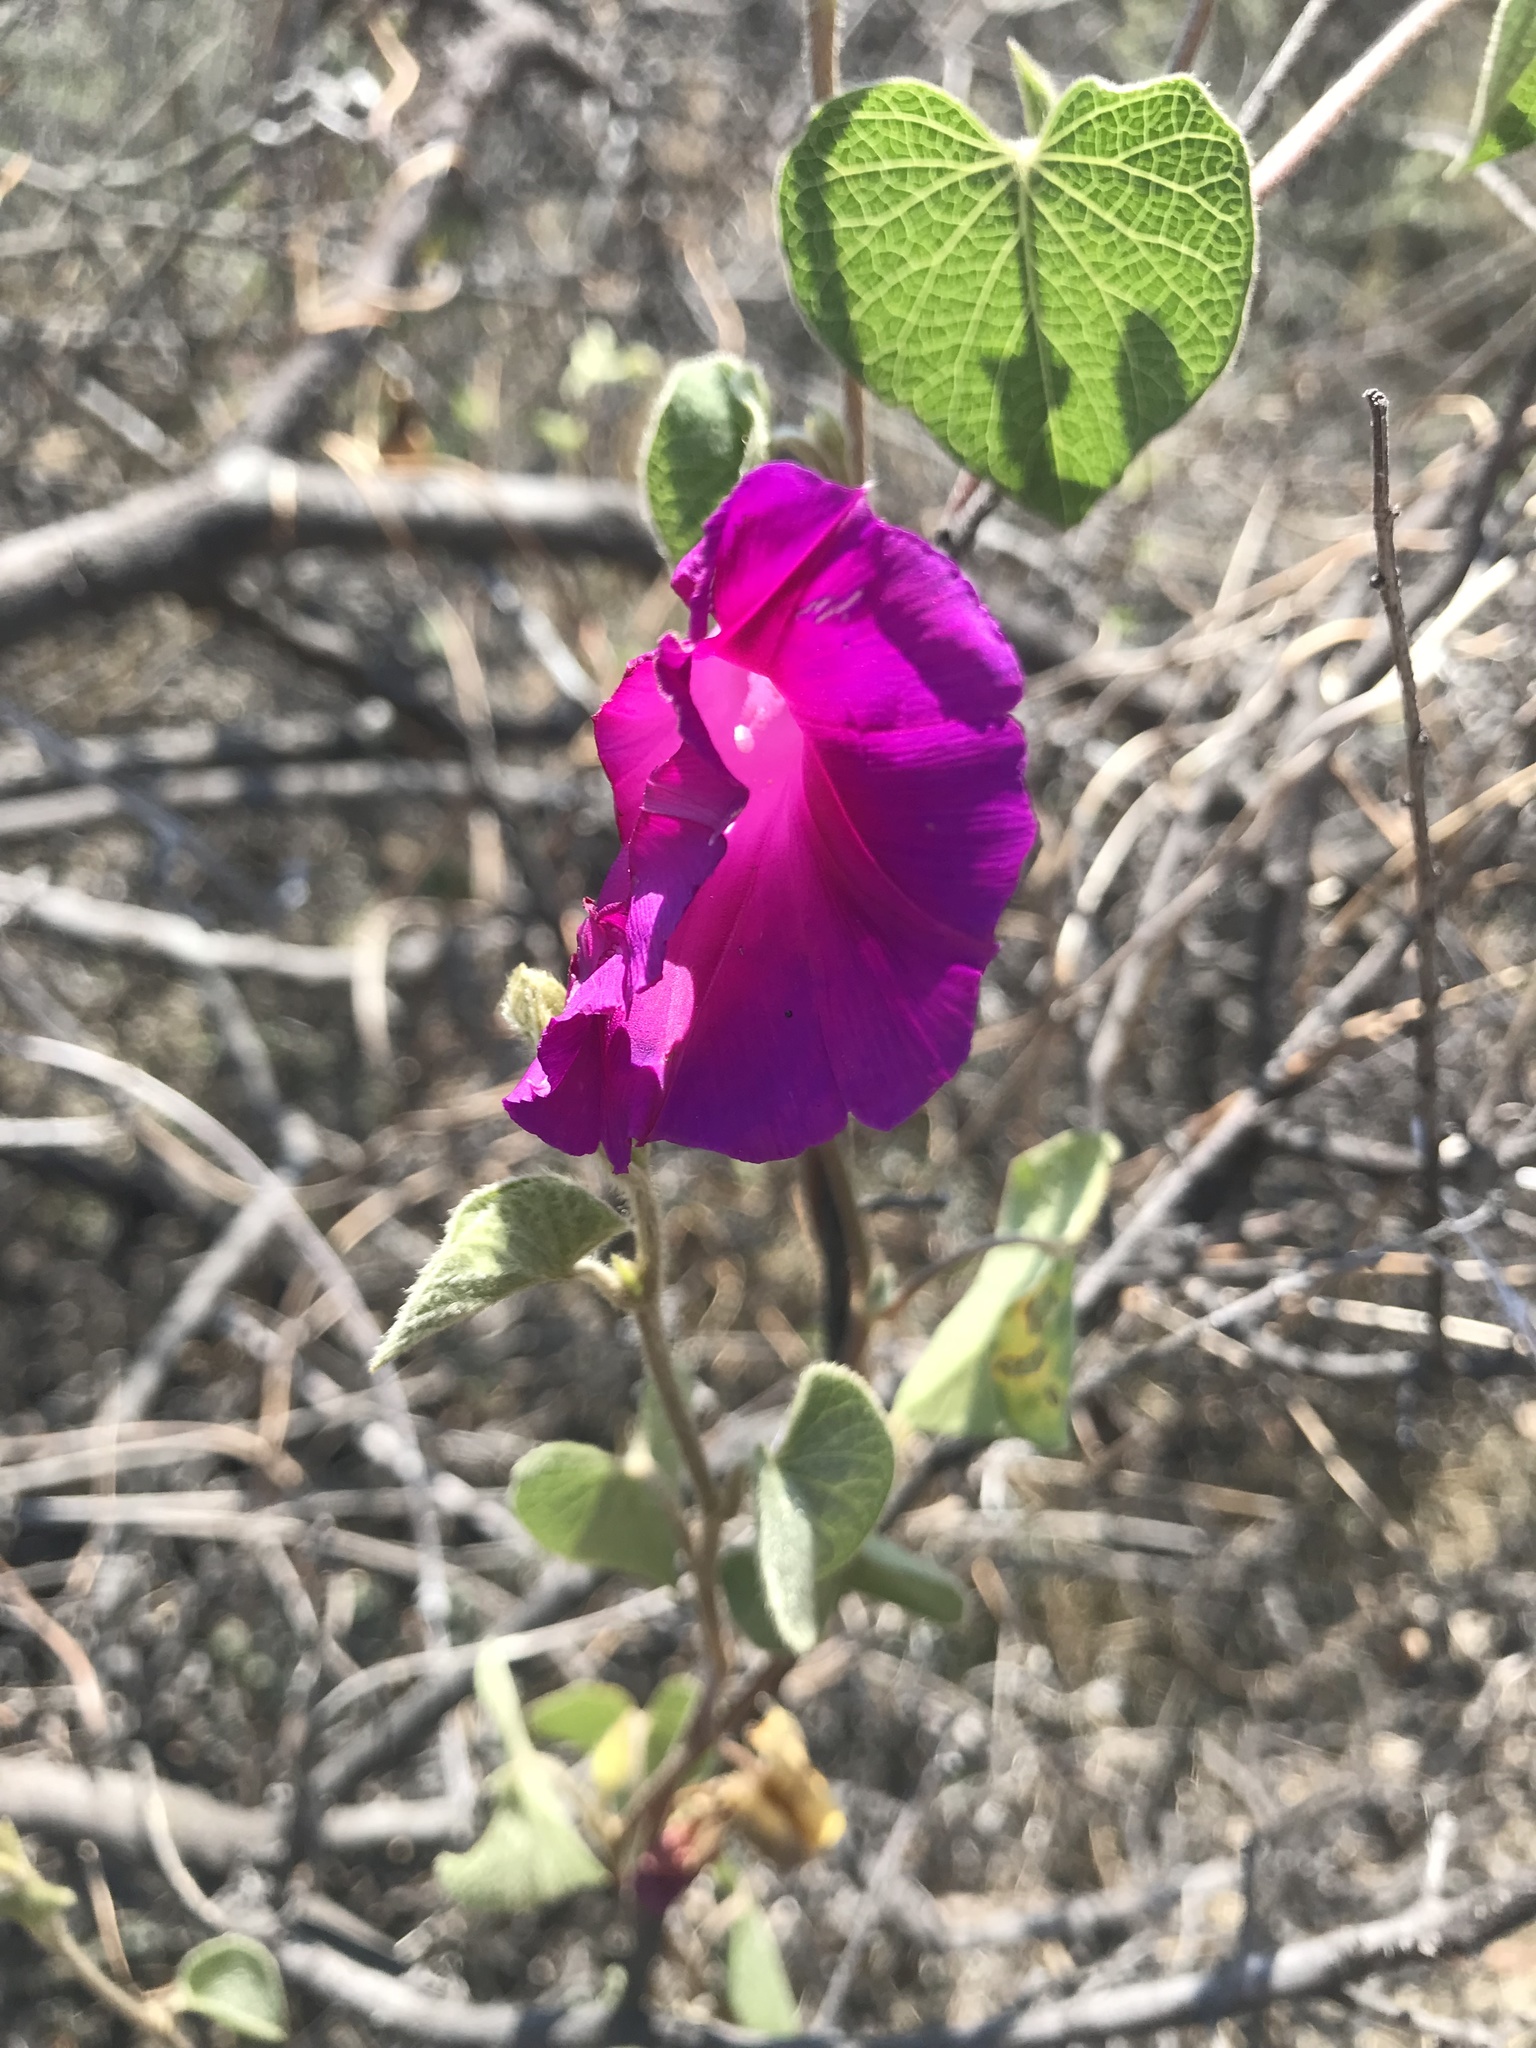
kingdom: Plantae
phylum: Tracheophyta
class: Magnoliopsida
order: Solanales
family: Convolvulaceae
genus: Ipomoea
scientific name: Ipomoea orizabensis
